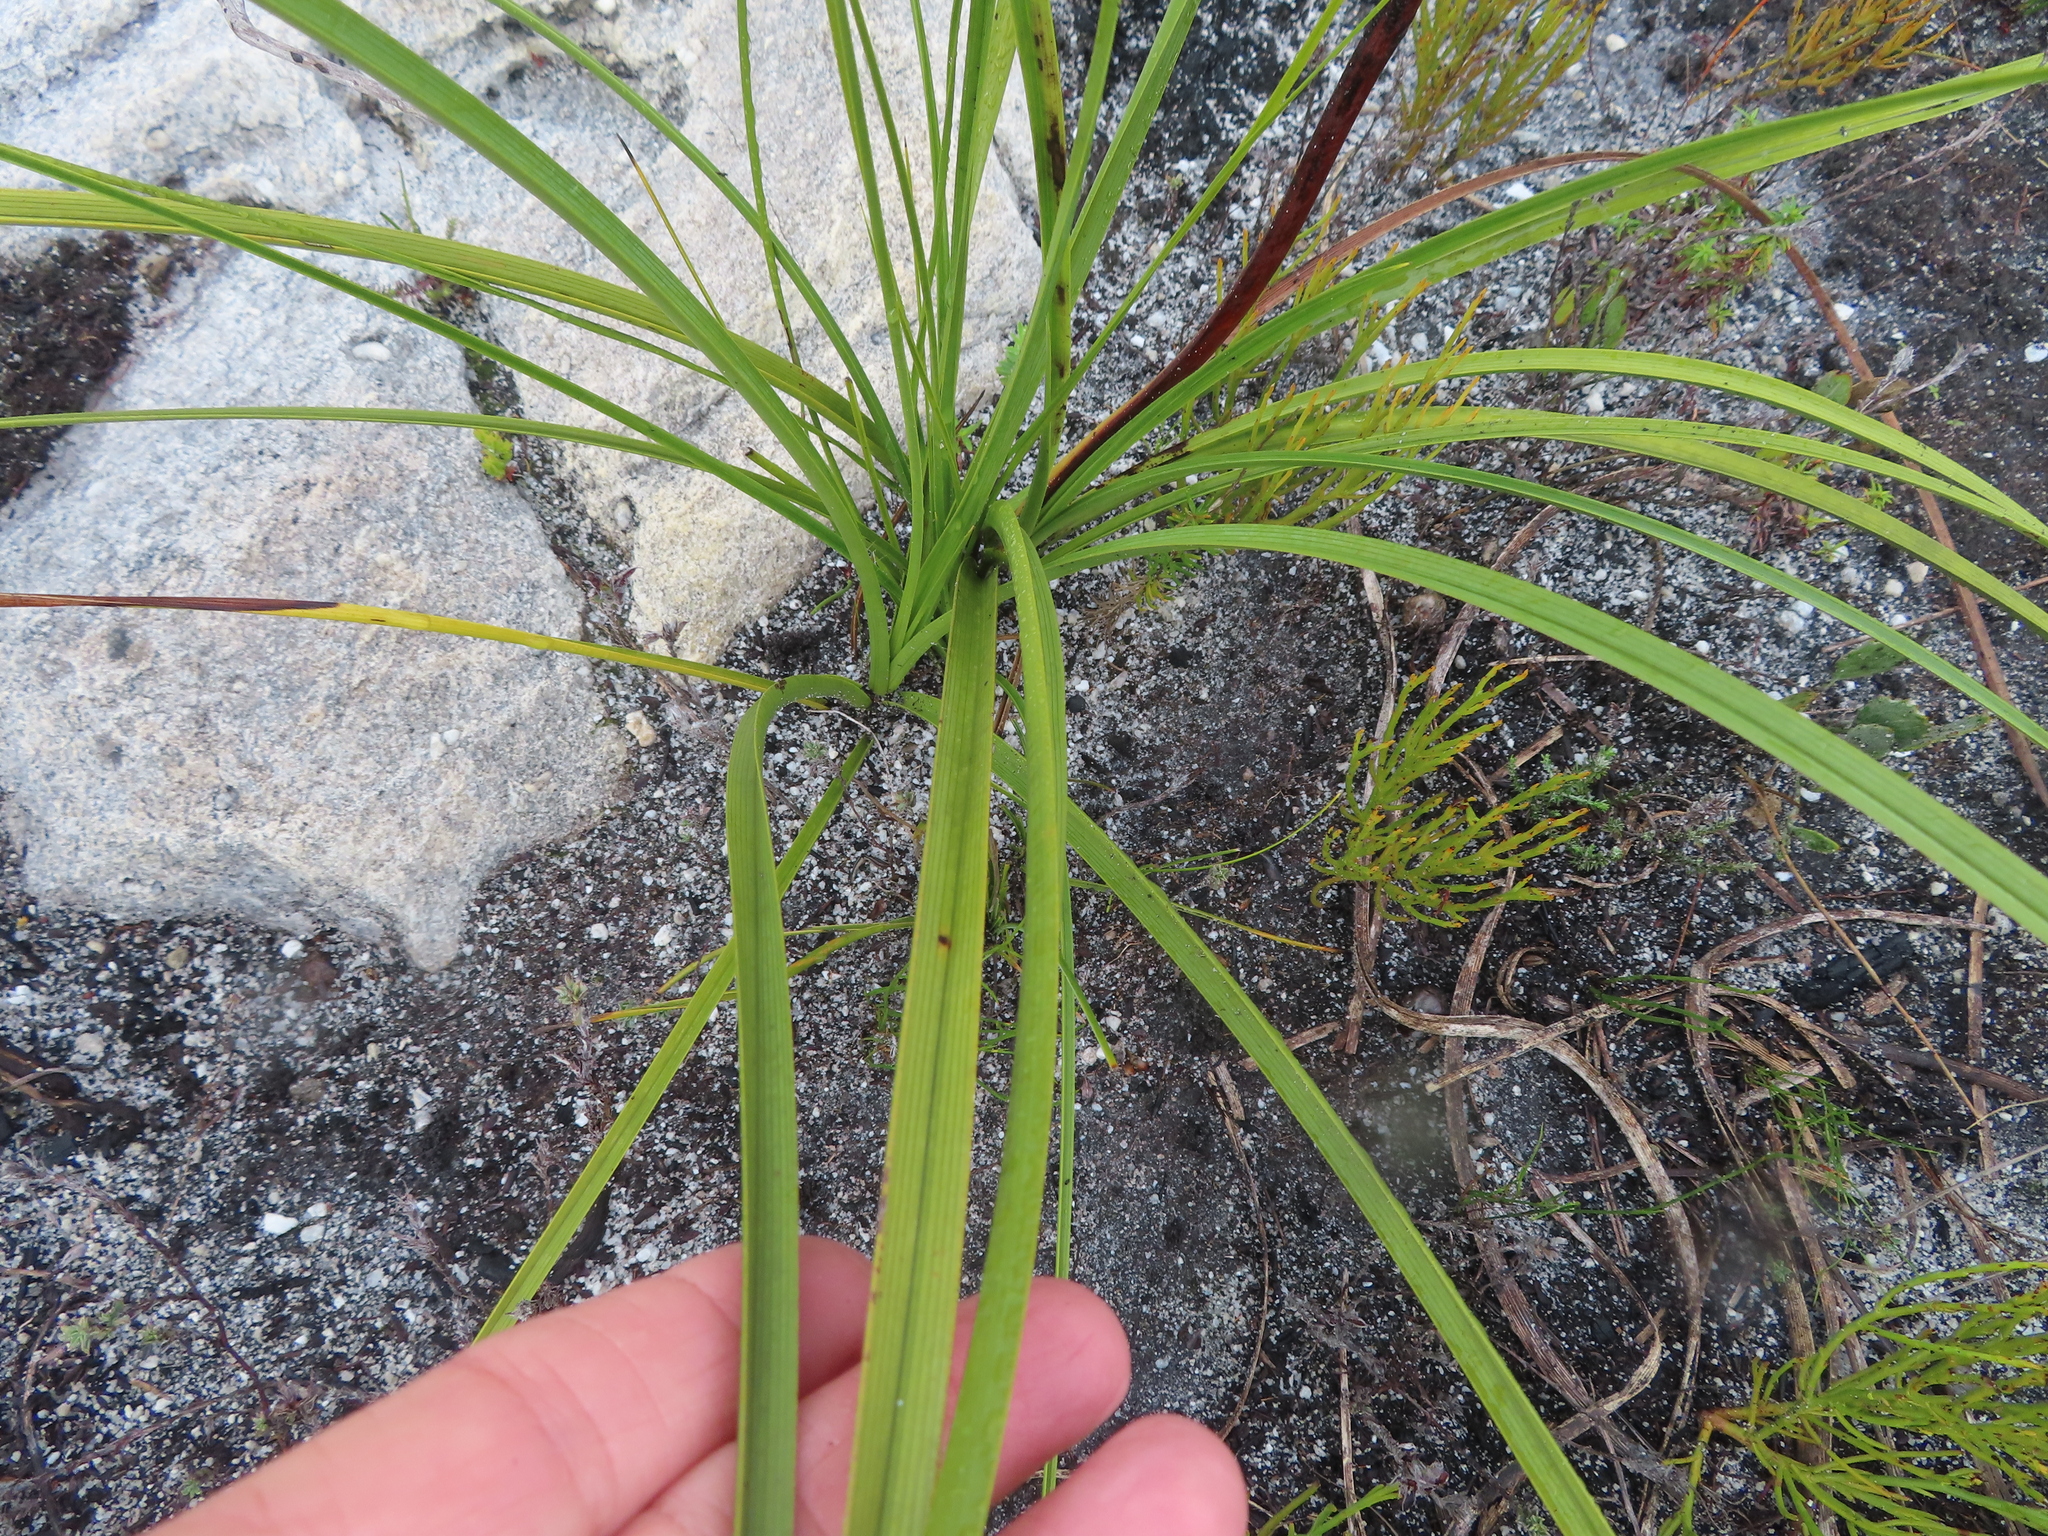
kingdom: Plantae
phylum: Tracheophyta
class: Liliopsida
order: Asparagales
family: Lanariaceae
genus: Lanaria
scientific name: Lanaria lanata
